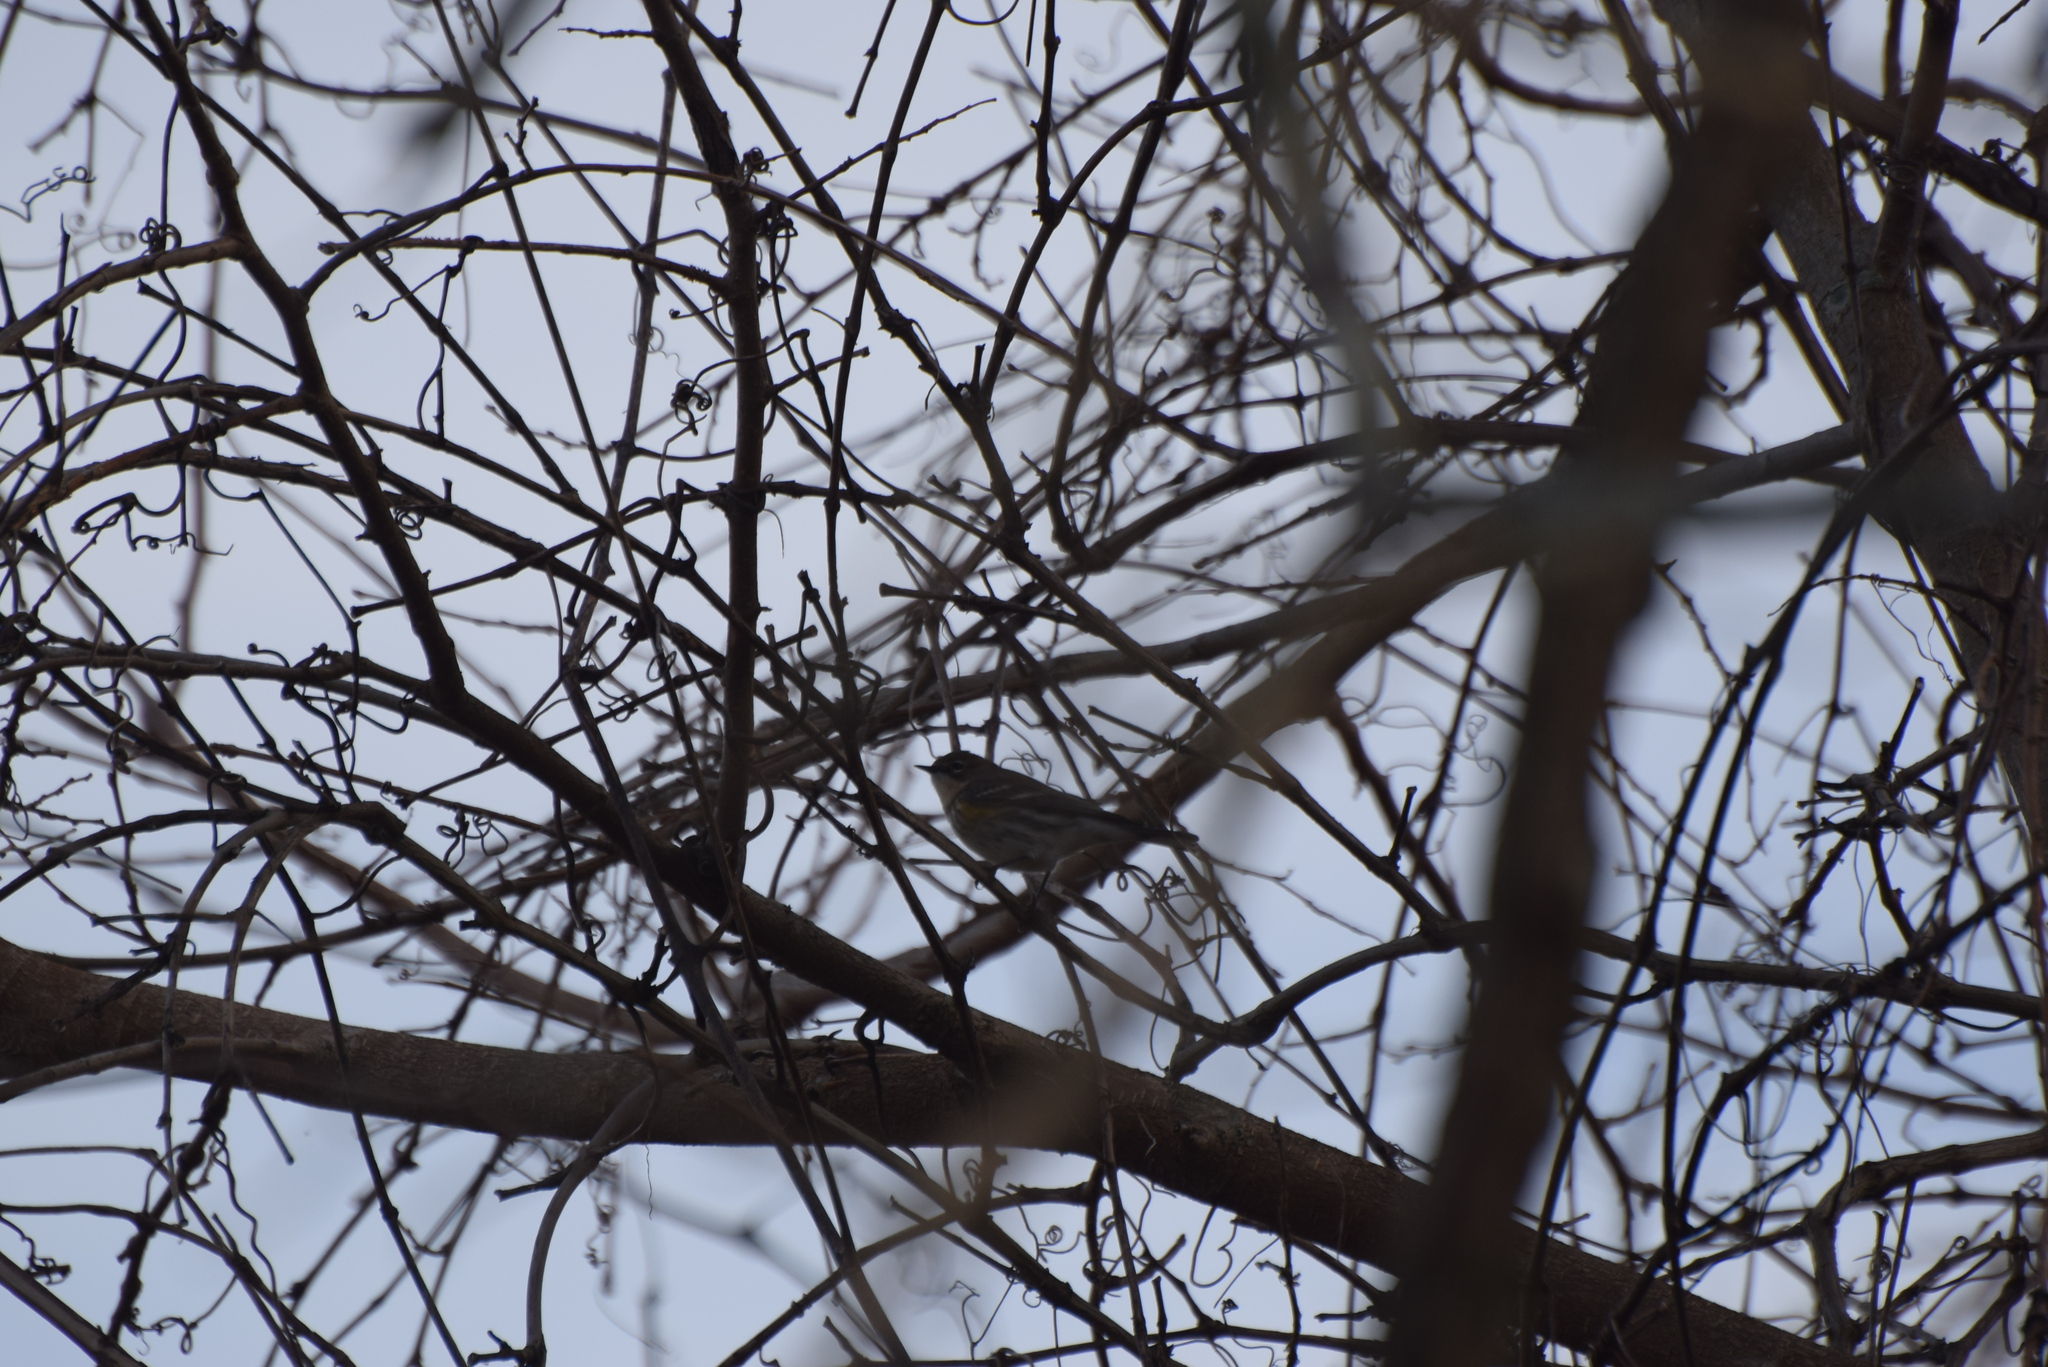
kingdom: Animalia
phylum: Chordata
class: Aves
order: Passeriformes
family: Parulidae
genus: Setophaga
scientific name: Setophaga coronata
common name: Myrtle warbler
